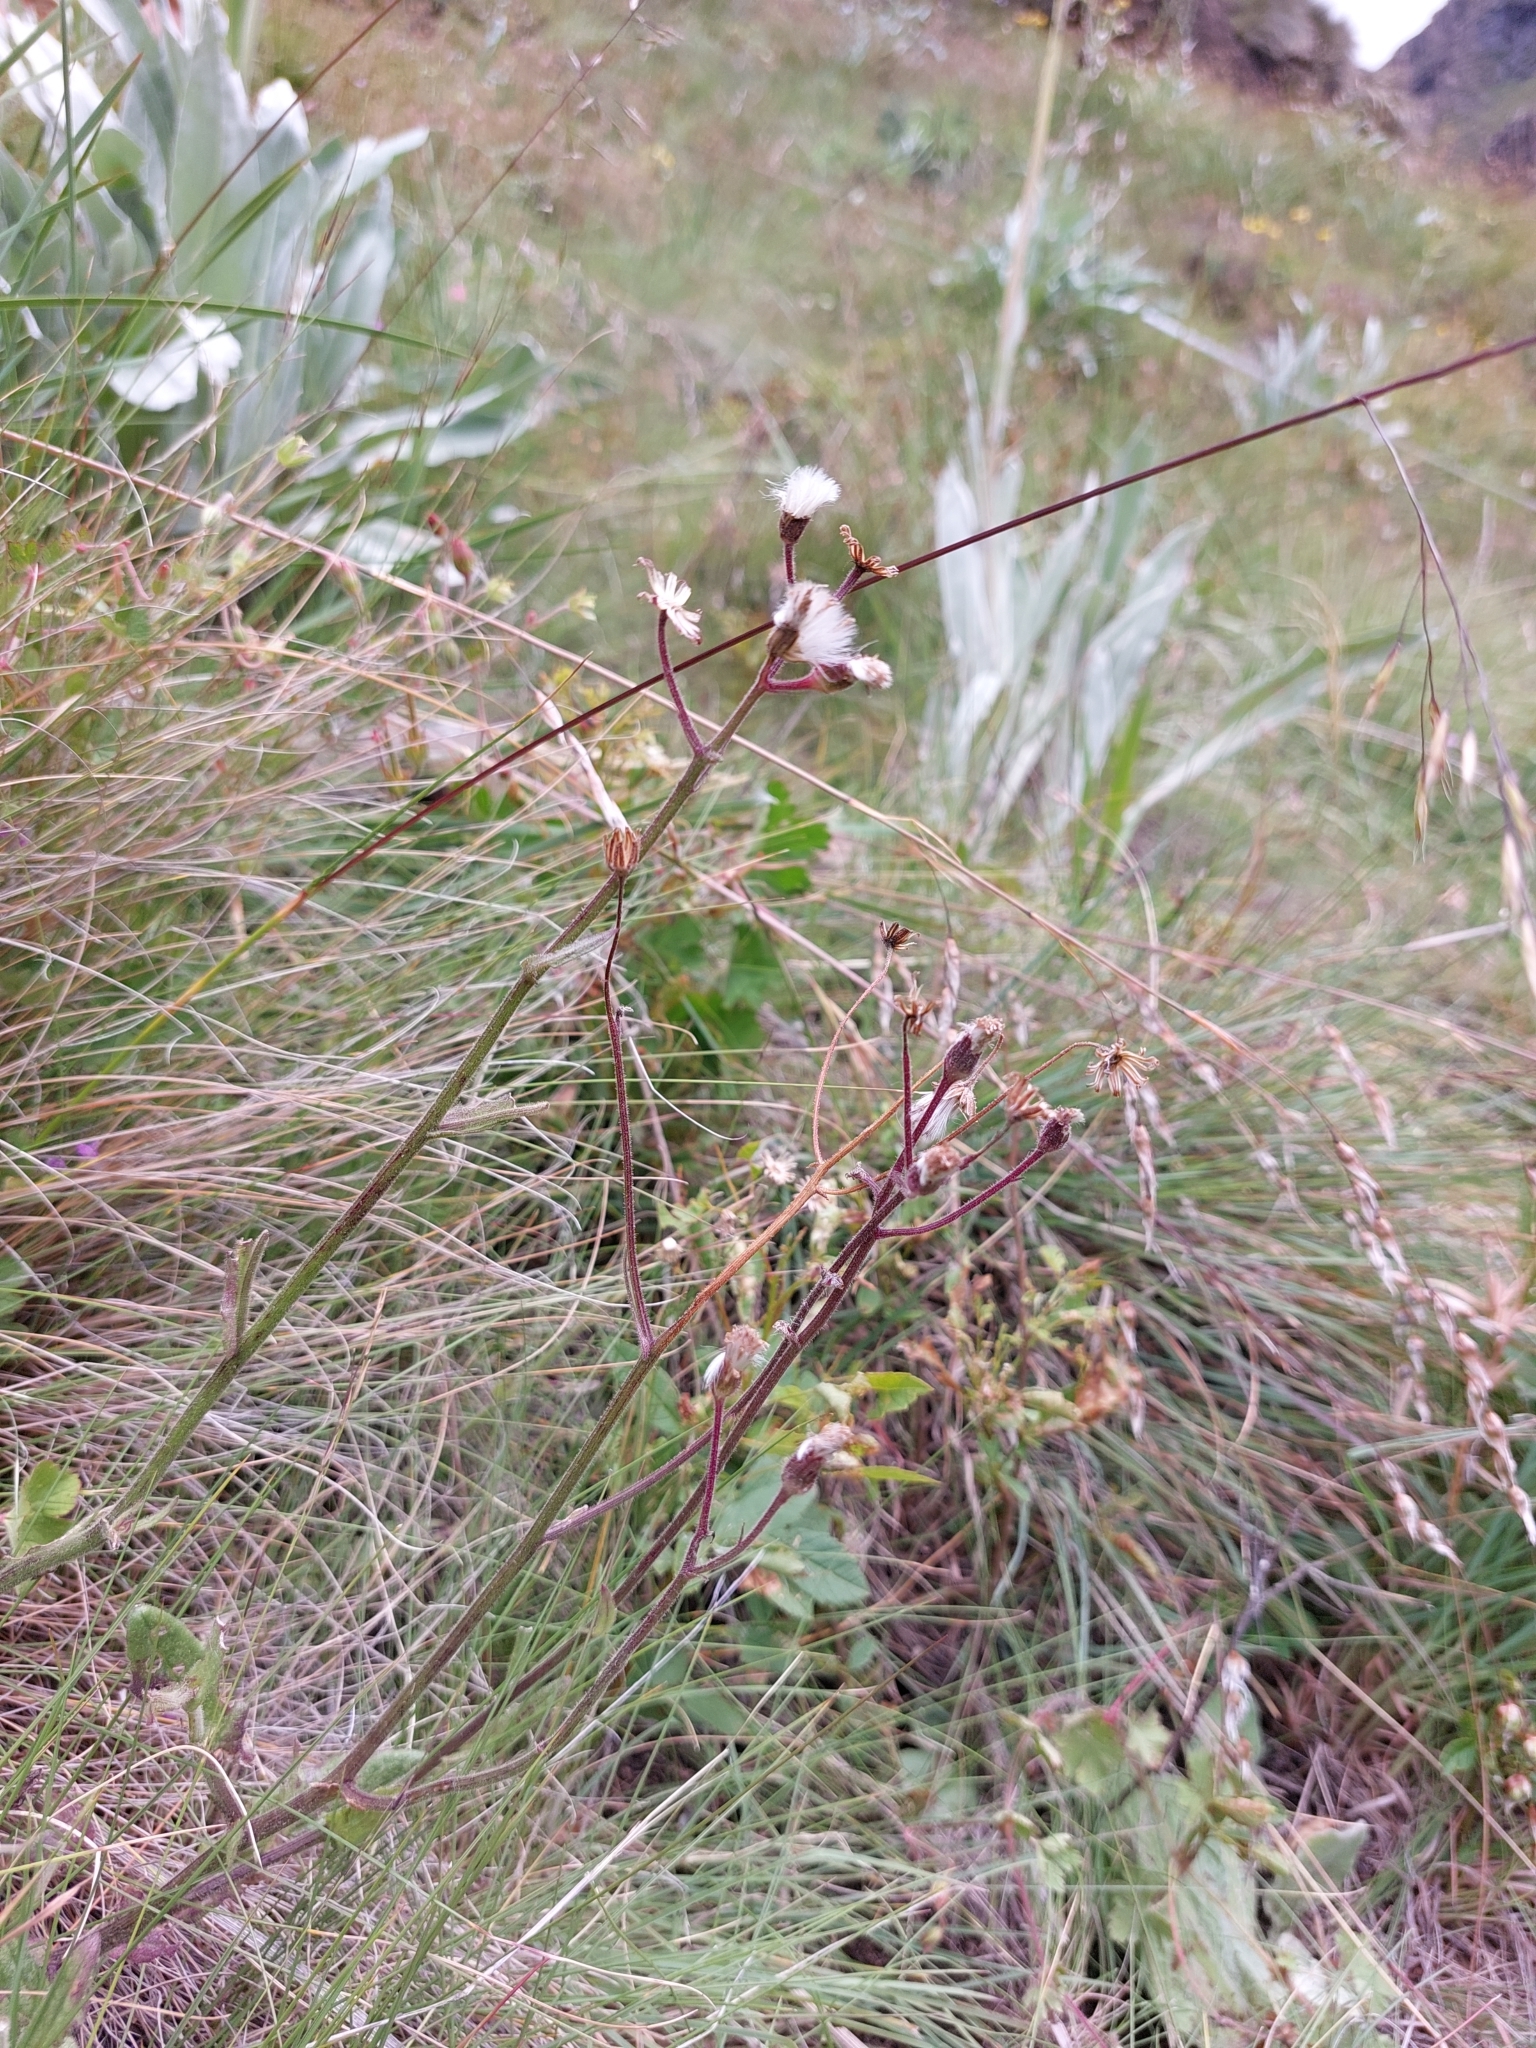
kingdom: Plantae
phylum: Tracheophyta
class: Magnoliopsida
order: Asterales
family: Asteraceae
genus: Senecio
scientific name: Senecio discodregeanus
